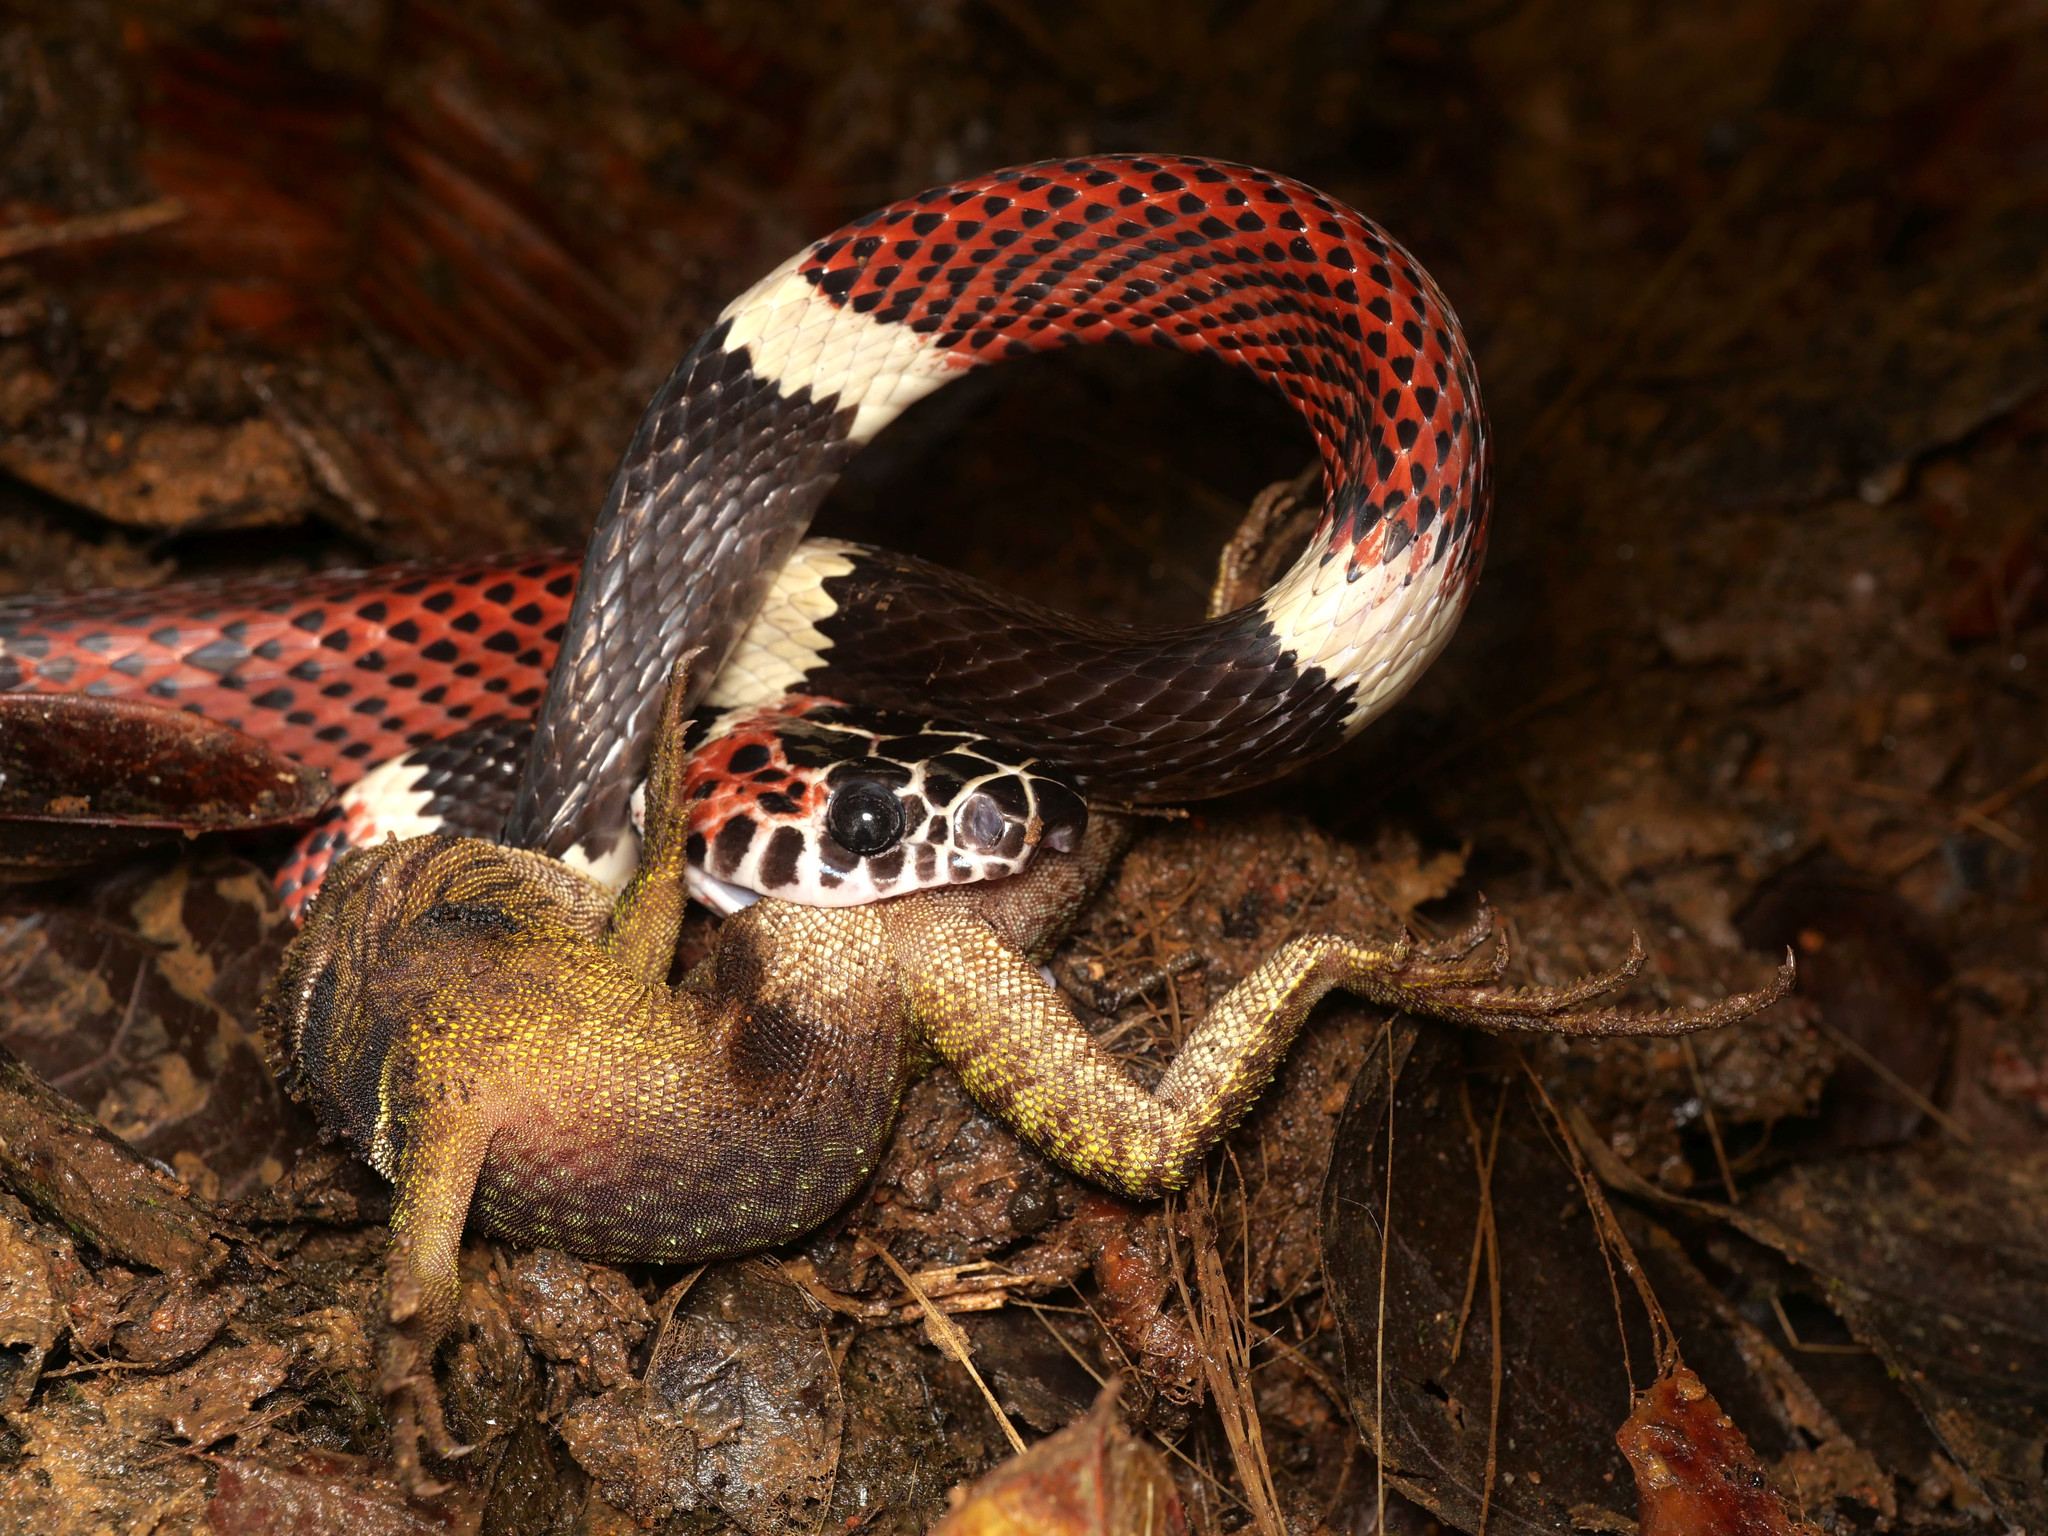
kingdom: Animalia
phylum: Chordata
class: Squamata
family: Colubridae
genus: Rhinobothryum
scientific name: Rhinobothryum bovallii
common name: False tree coral
